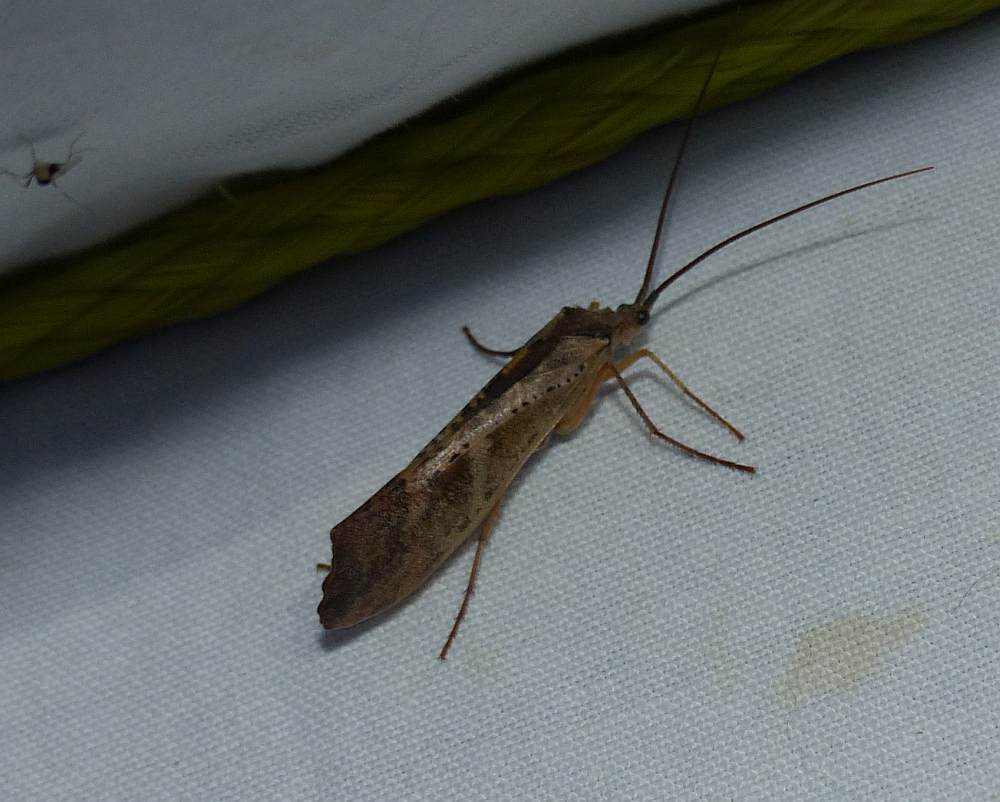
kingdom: Animalia
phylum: Arthropoda
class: Insecta
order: Trichoptera
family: Limnephilidae
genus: Nemotaulius
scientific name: Nemotaulius hostilis
